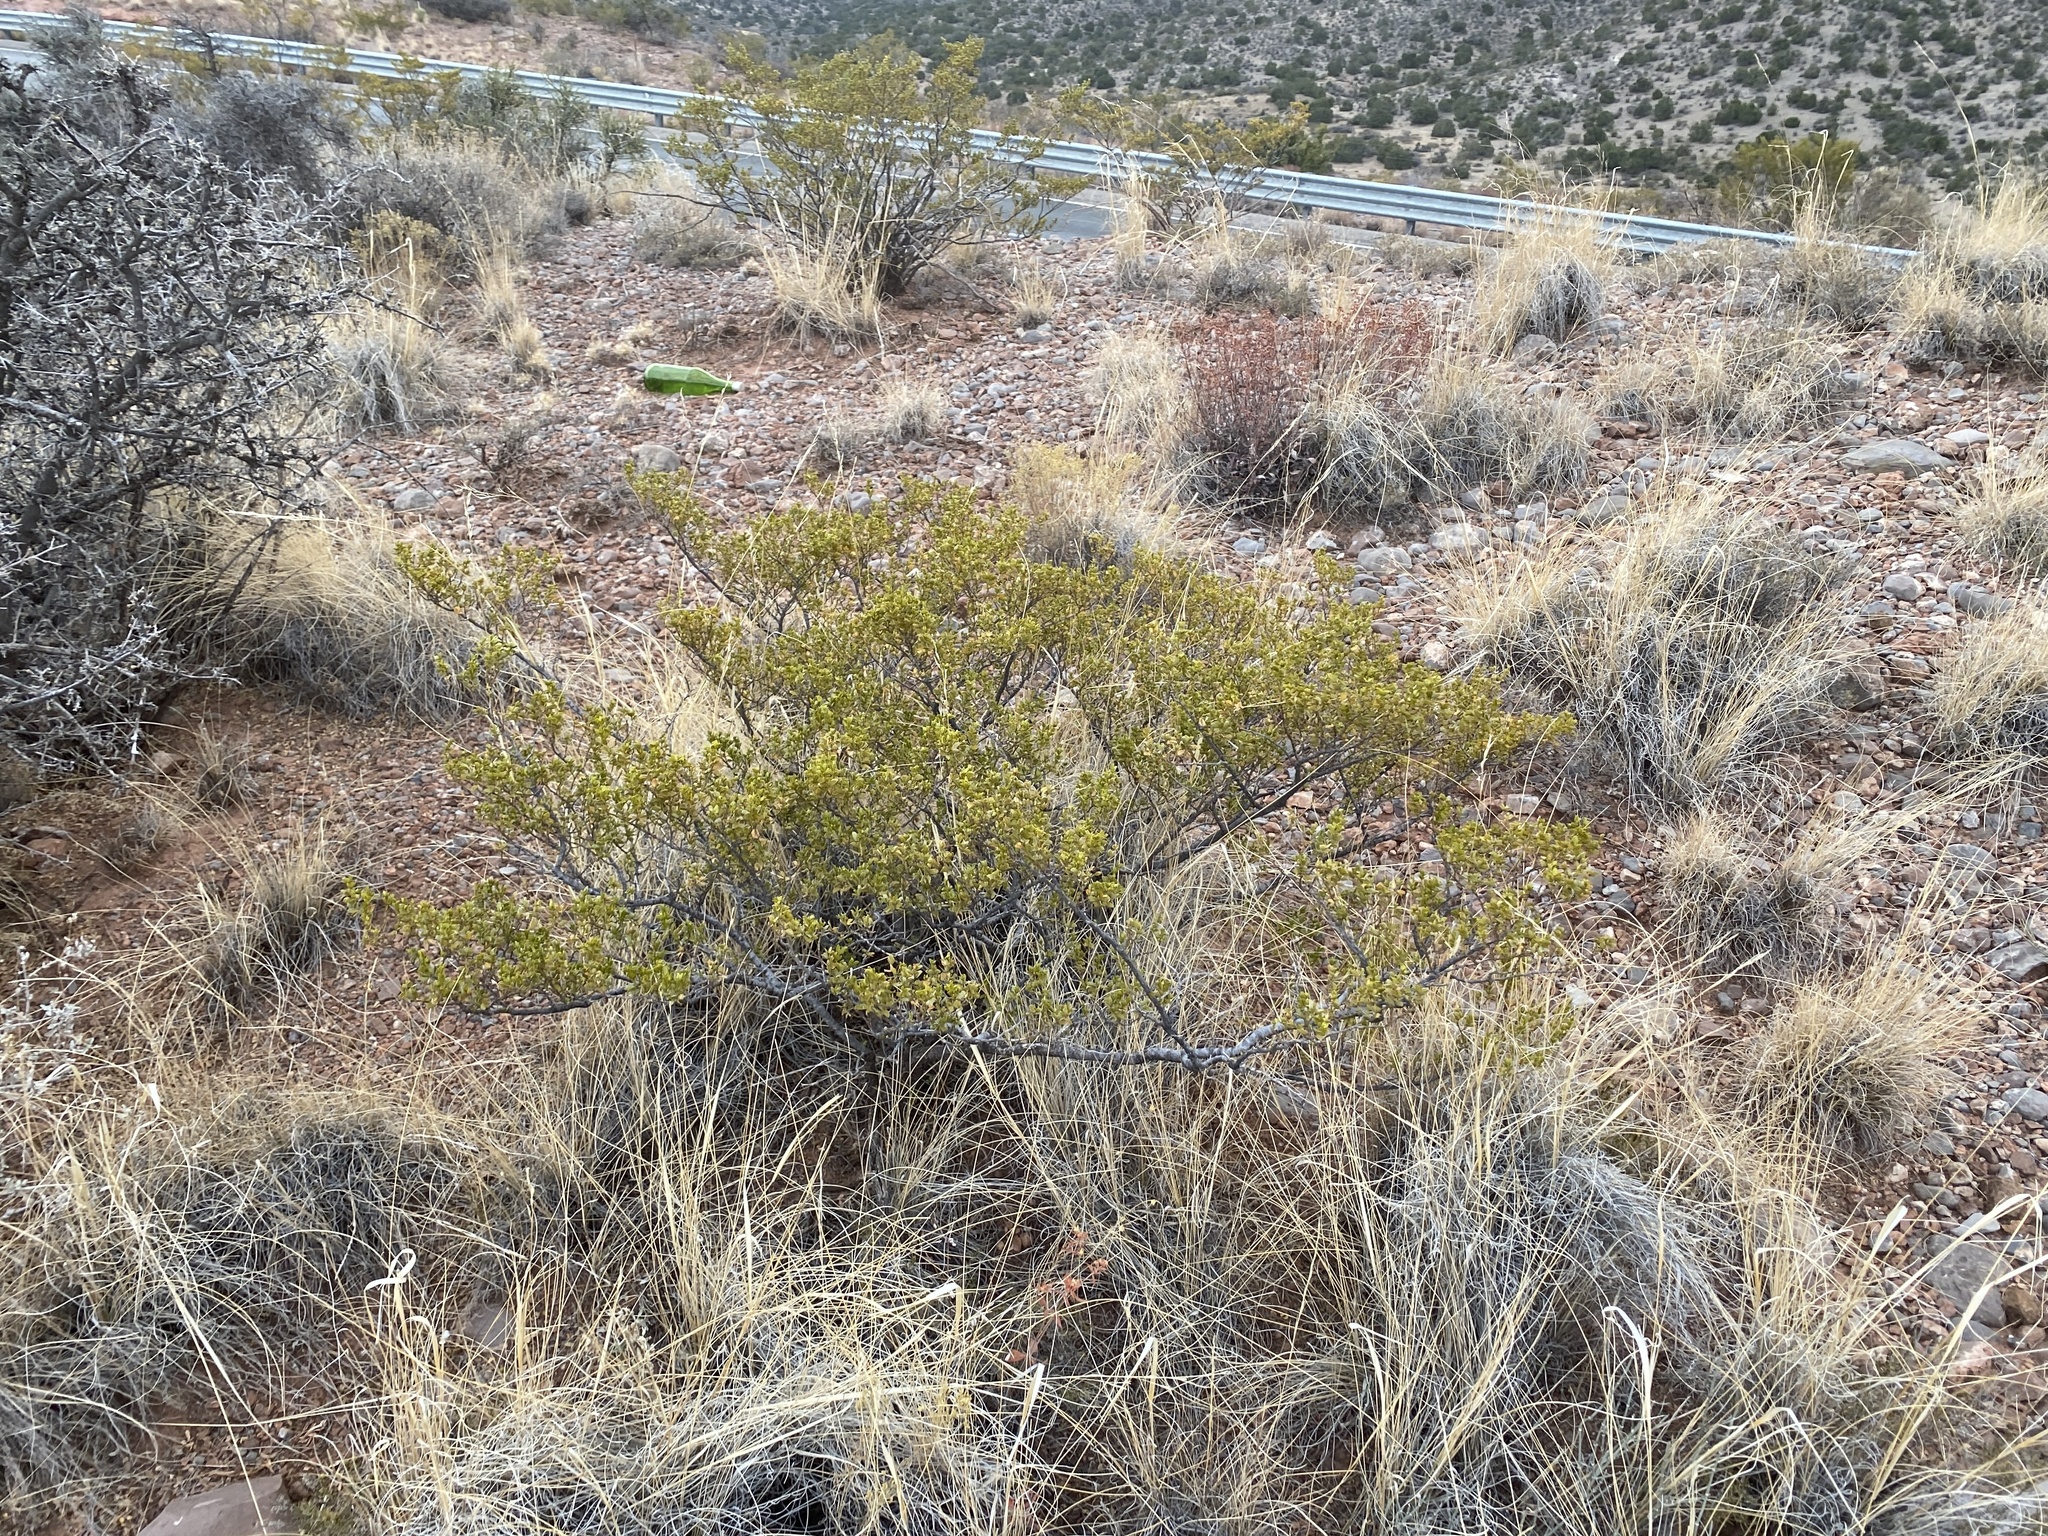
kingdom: Plantae
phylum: Tracheophyta
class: Magnoliopsida
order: Zygophyllales
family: Zygophyllaceae
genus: Larrea
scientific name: Larrea tridentata
